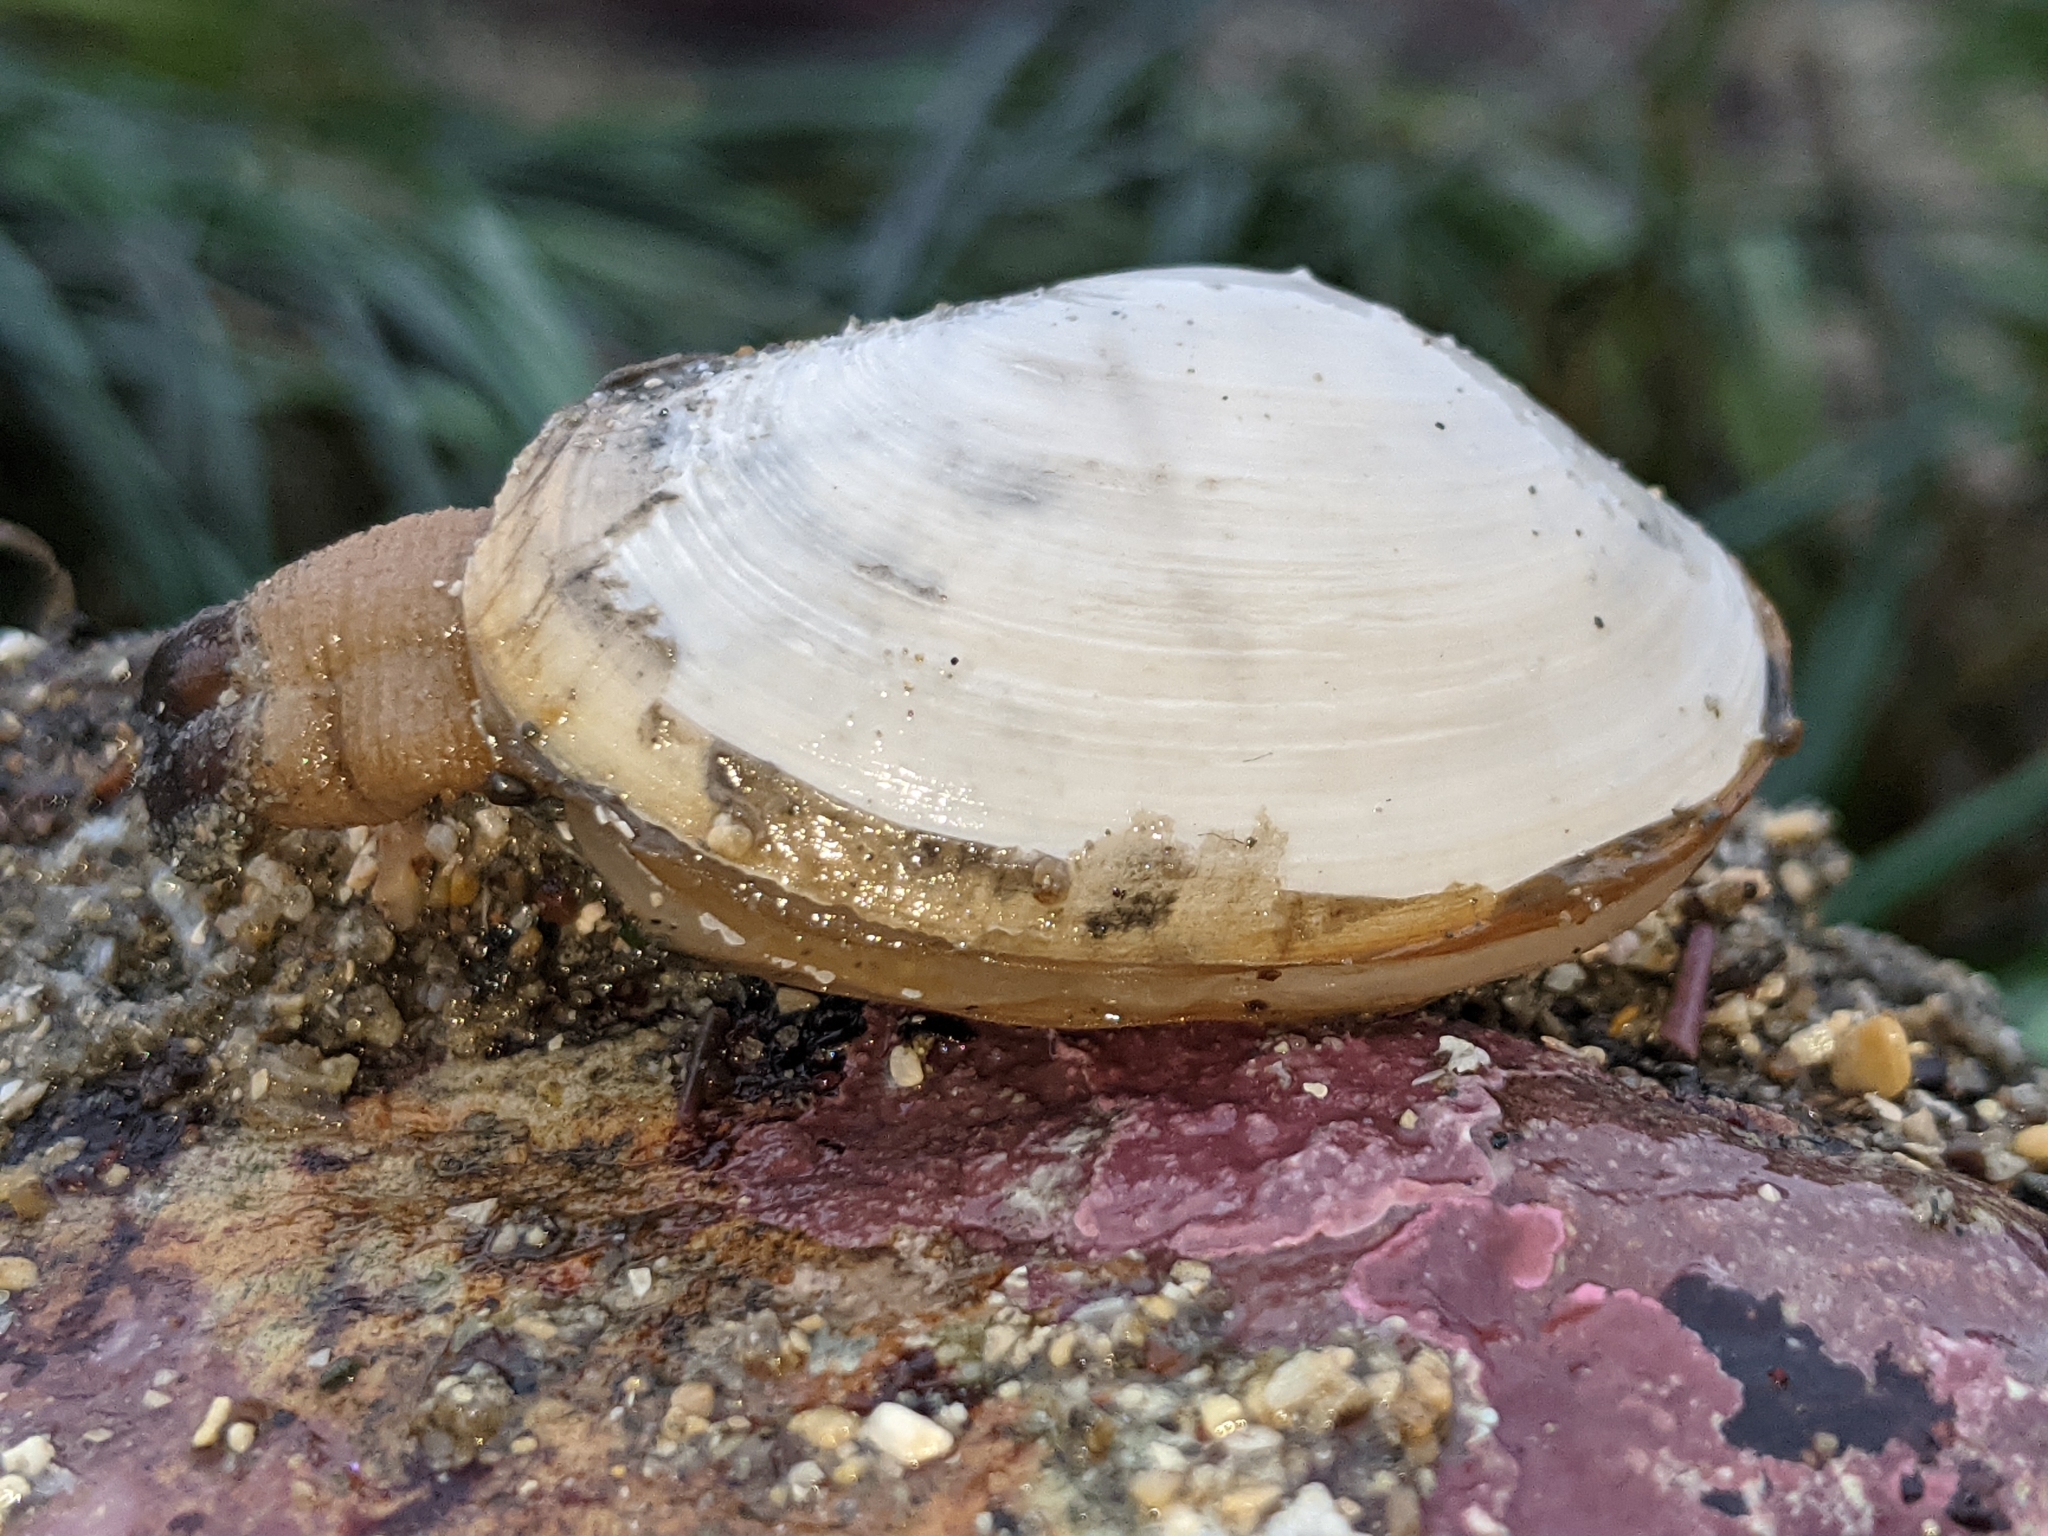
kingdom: Animalia
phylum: Mollusca
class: Bivalvia
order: Venerida
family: Mactridae
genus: Tresus
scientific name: Tresus nuttallii
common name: Pacific gaper clam
